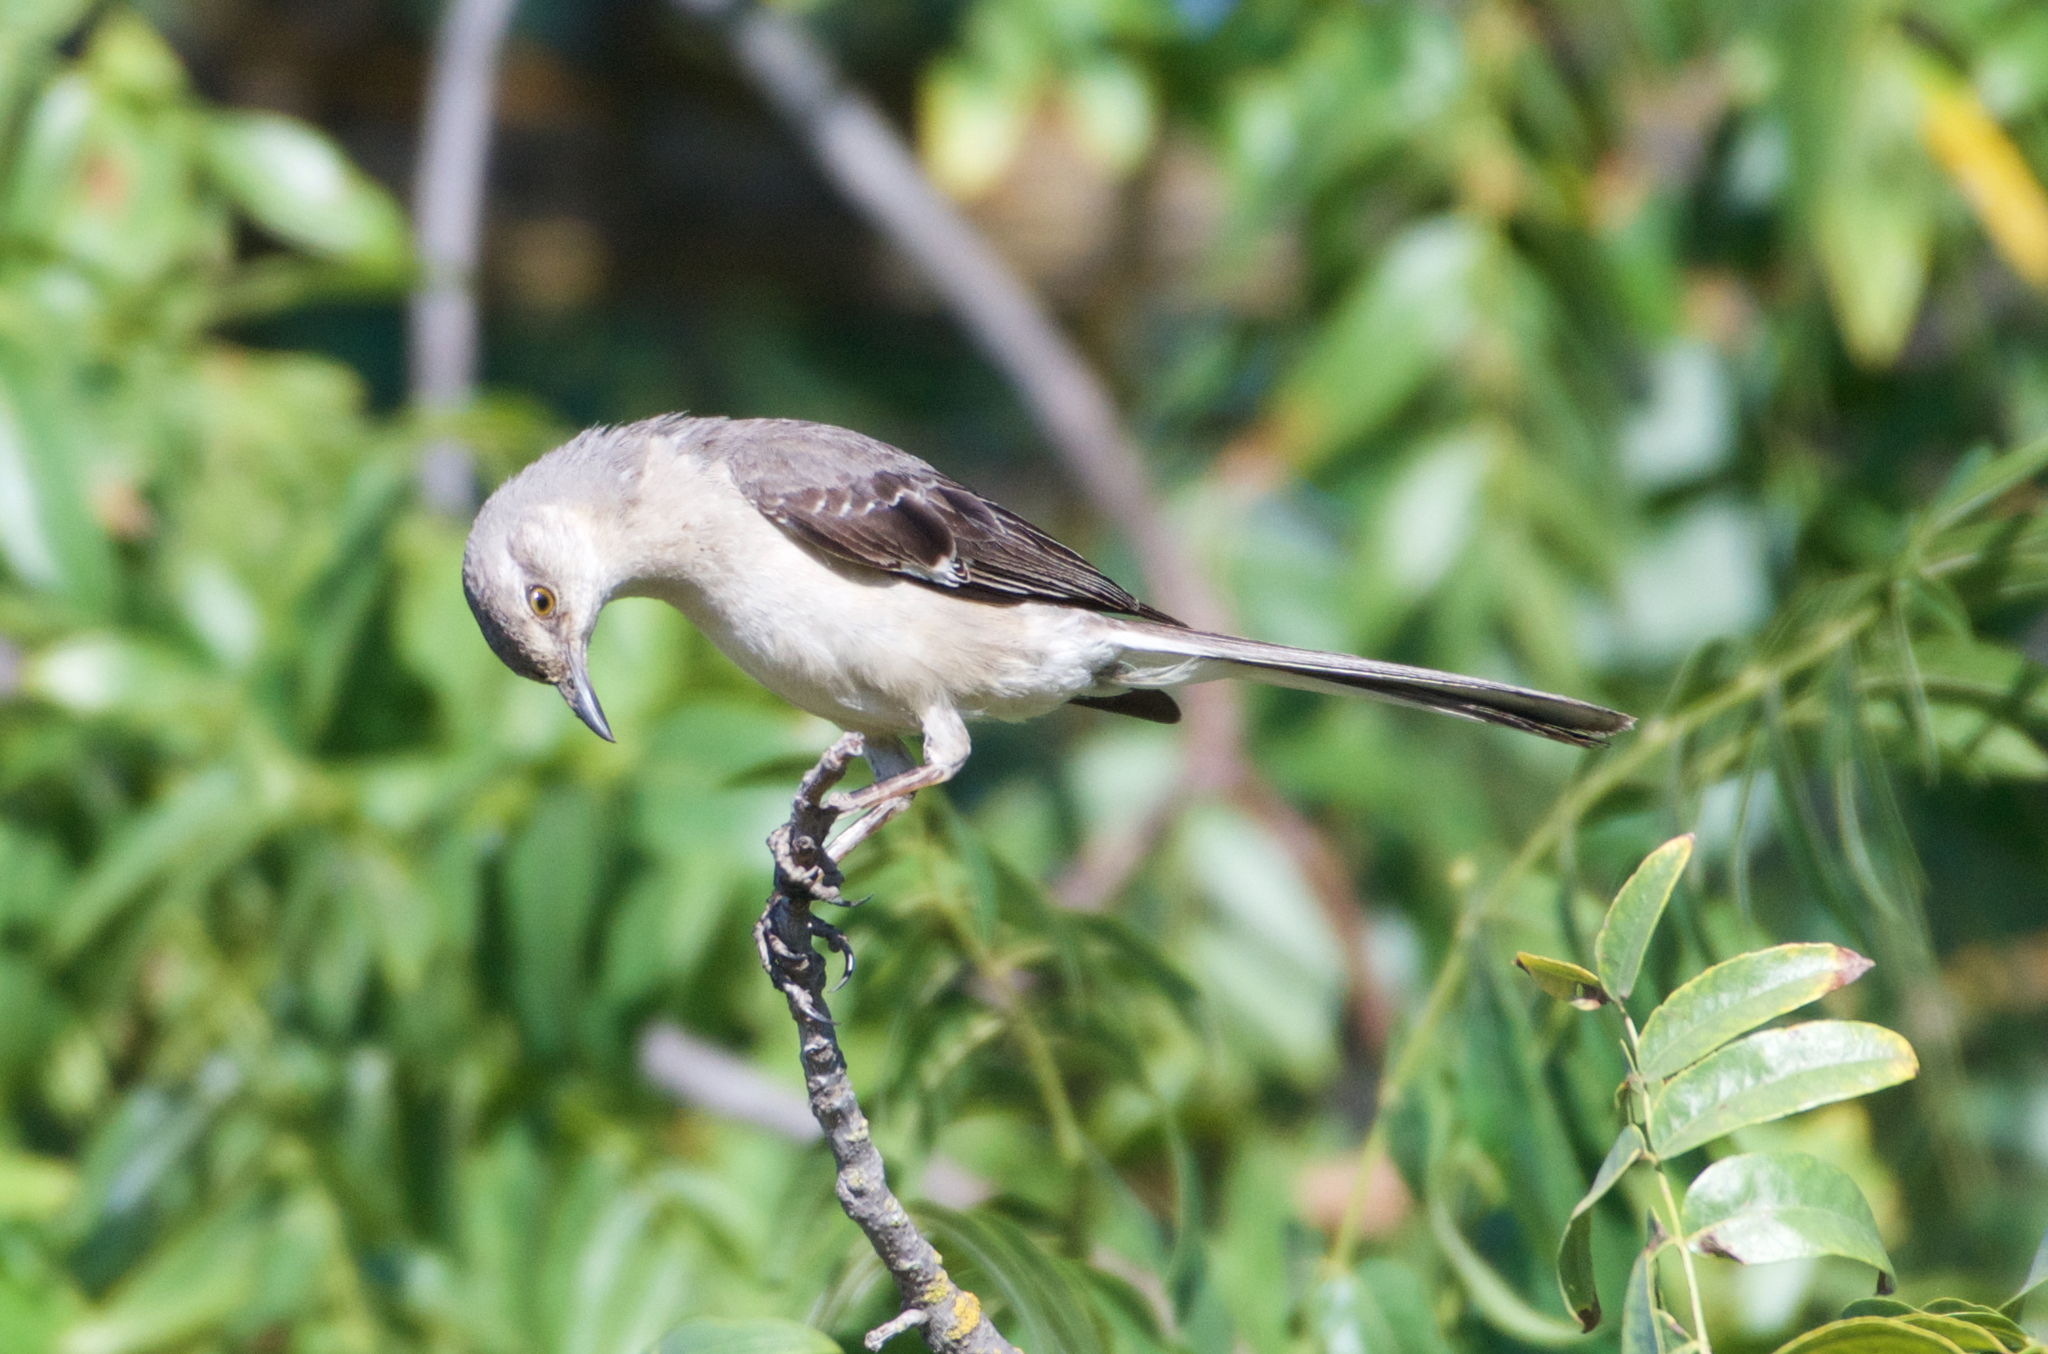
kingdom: Animalia
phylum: Chordata
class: Aves
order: Passeriformes
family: Mimidae
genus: Mimus
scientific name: Mimus polyglottos
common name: Northern mockingbird
